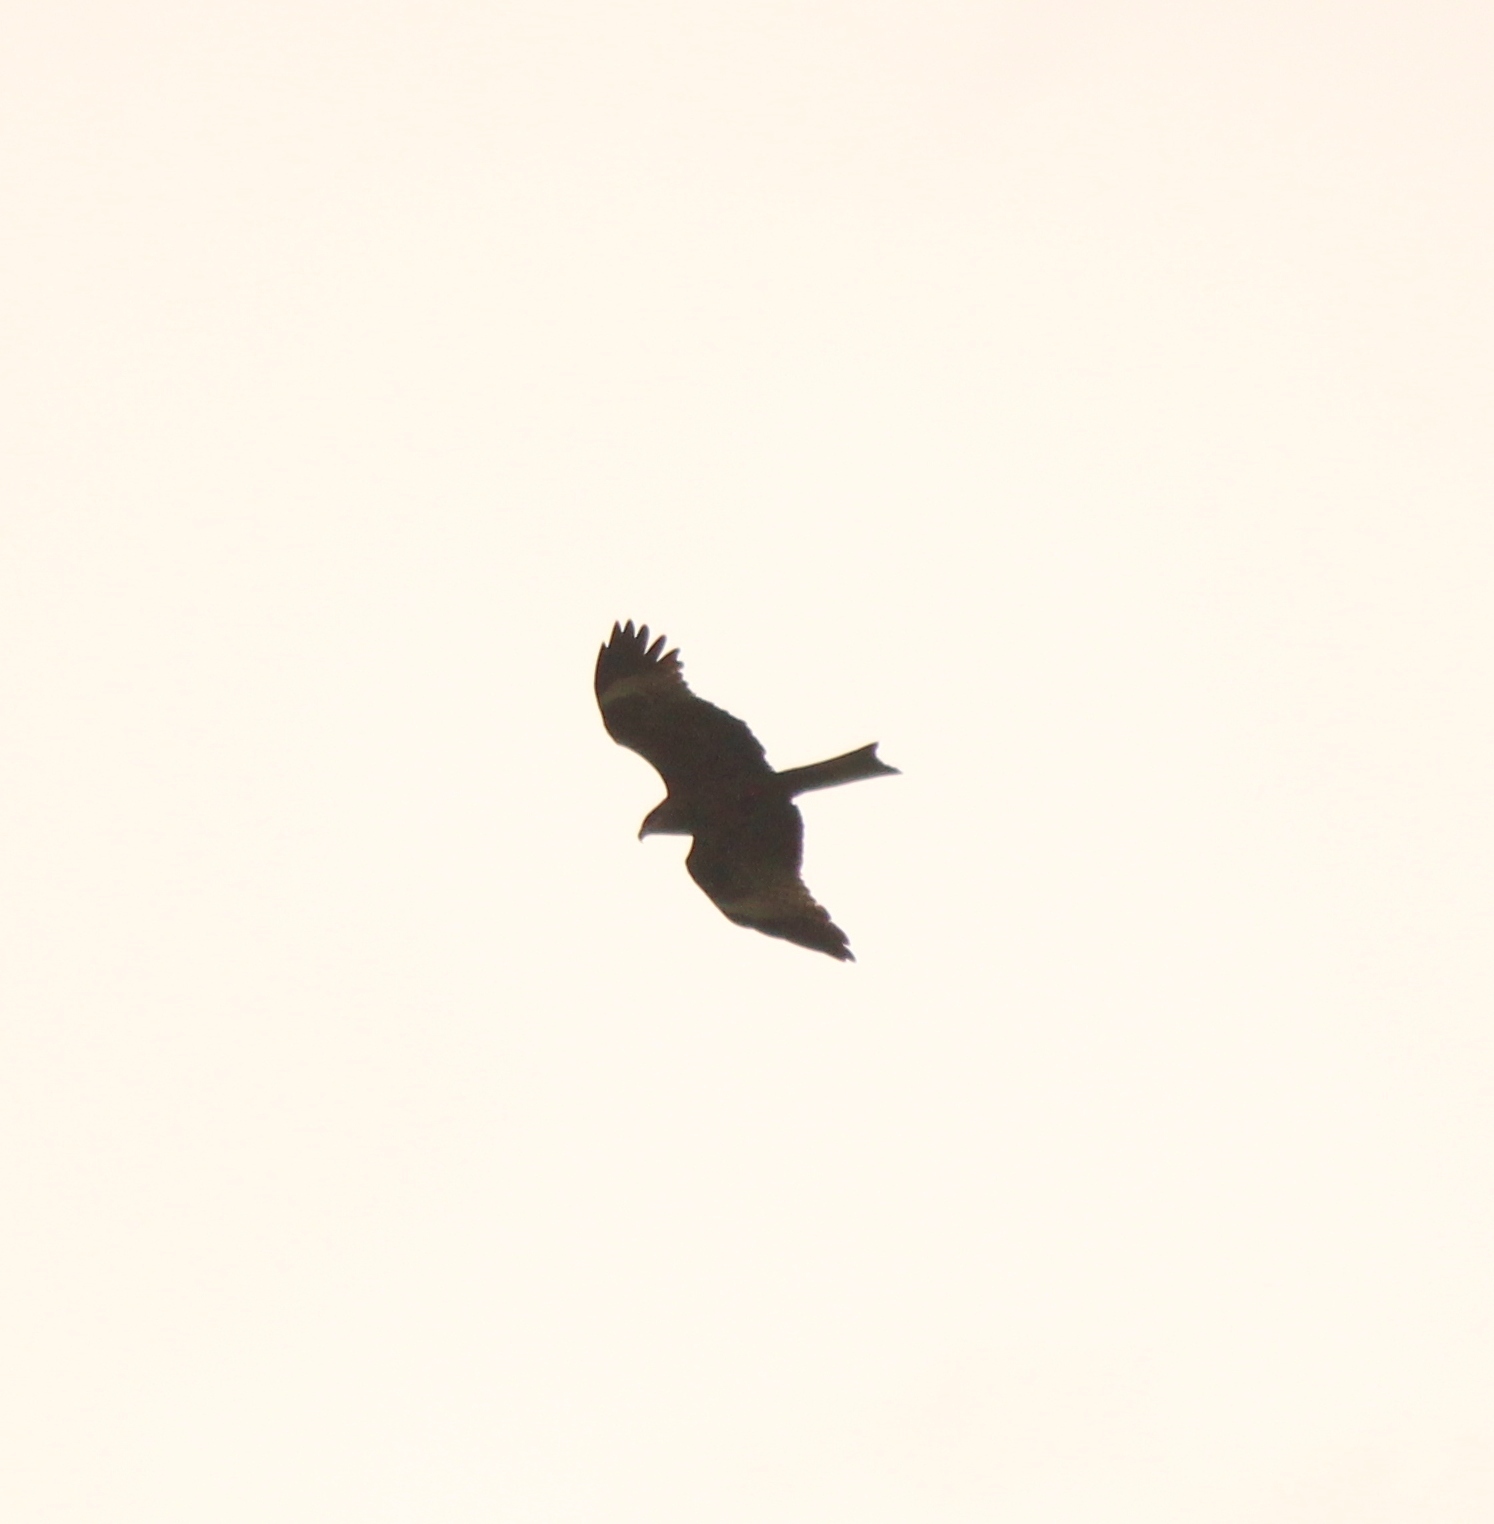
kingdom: Animalia
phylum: Chordata
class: Aves
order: Accipitriformes
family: Accipitridae
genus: Milvus
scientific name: Milvus migrans
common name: Black kite
